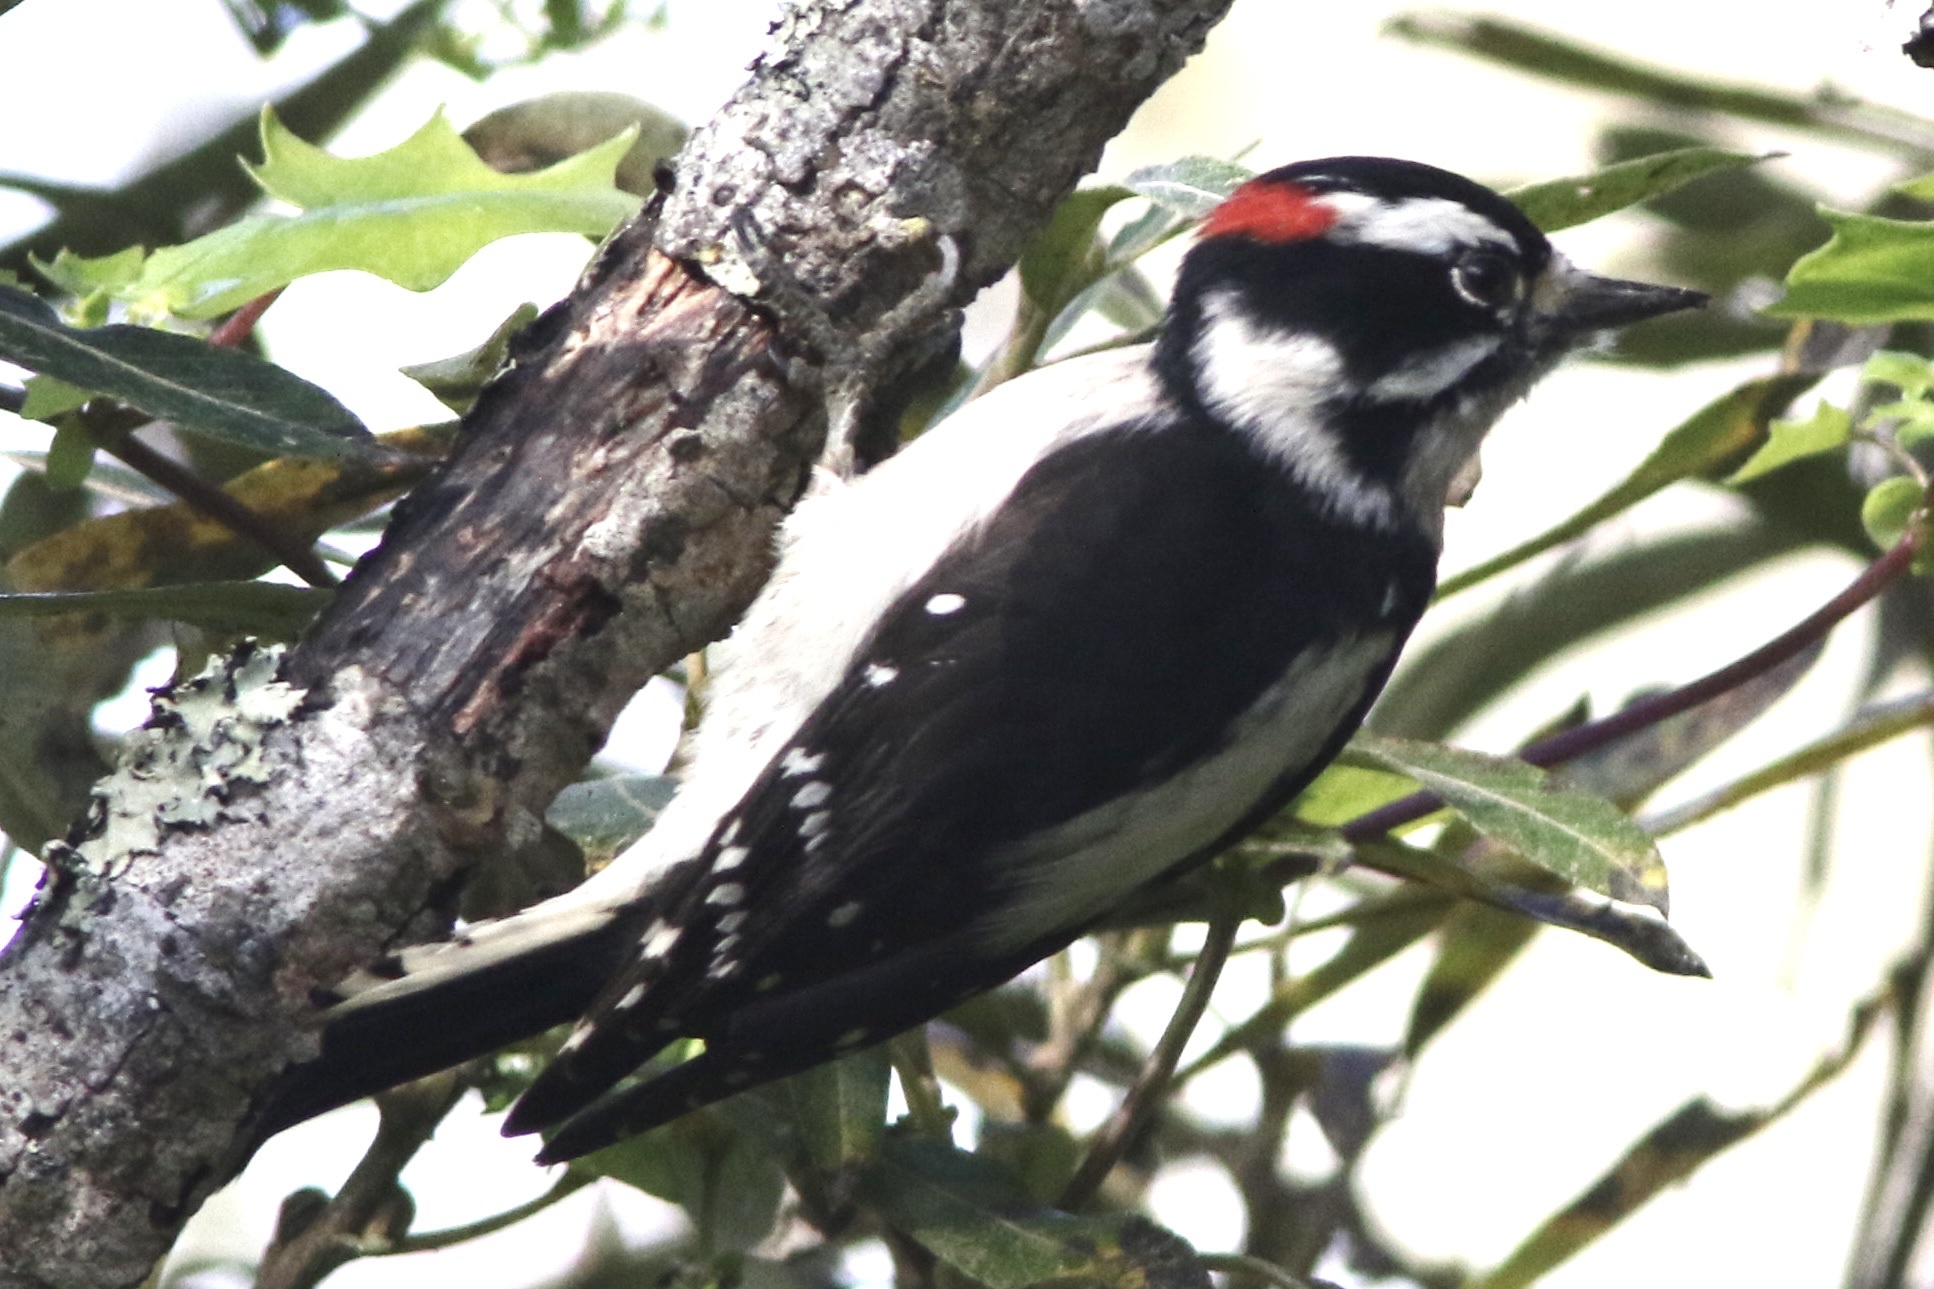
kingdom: Animalia
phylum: Chordata
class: Aves
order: Piciformes
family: Picidae
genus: Dryobates
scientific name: Dryobates pubescens
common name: Downy woodpecker
